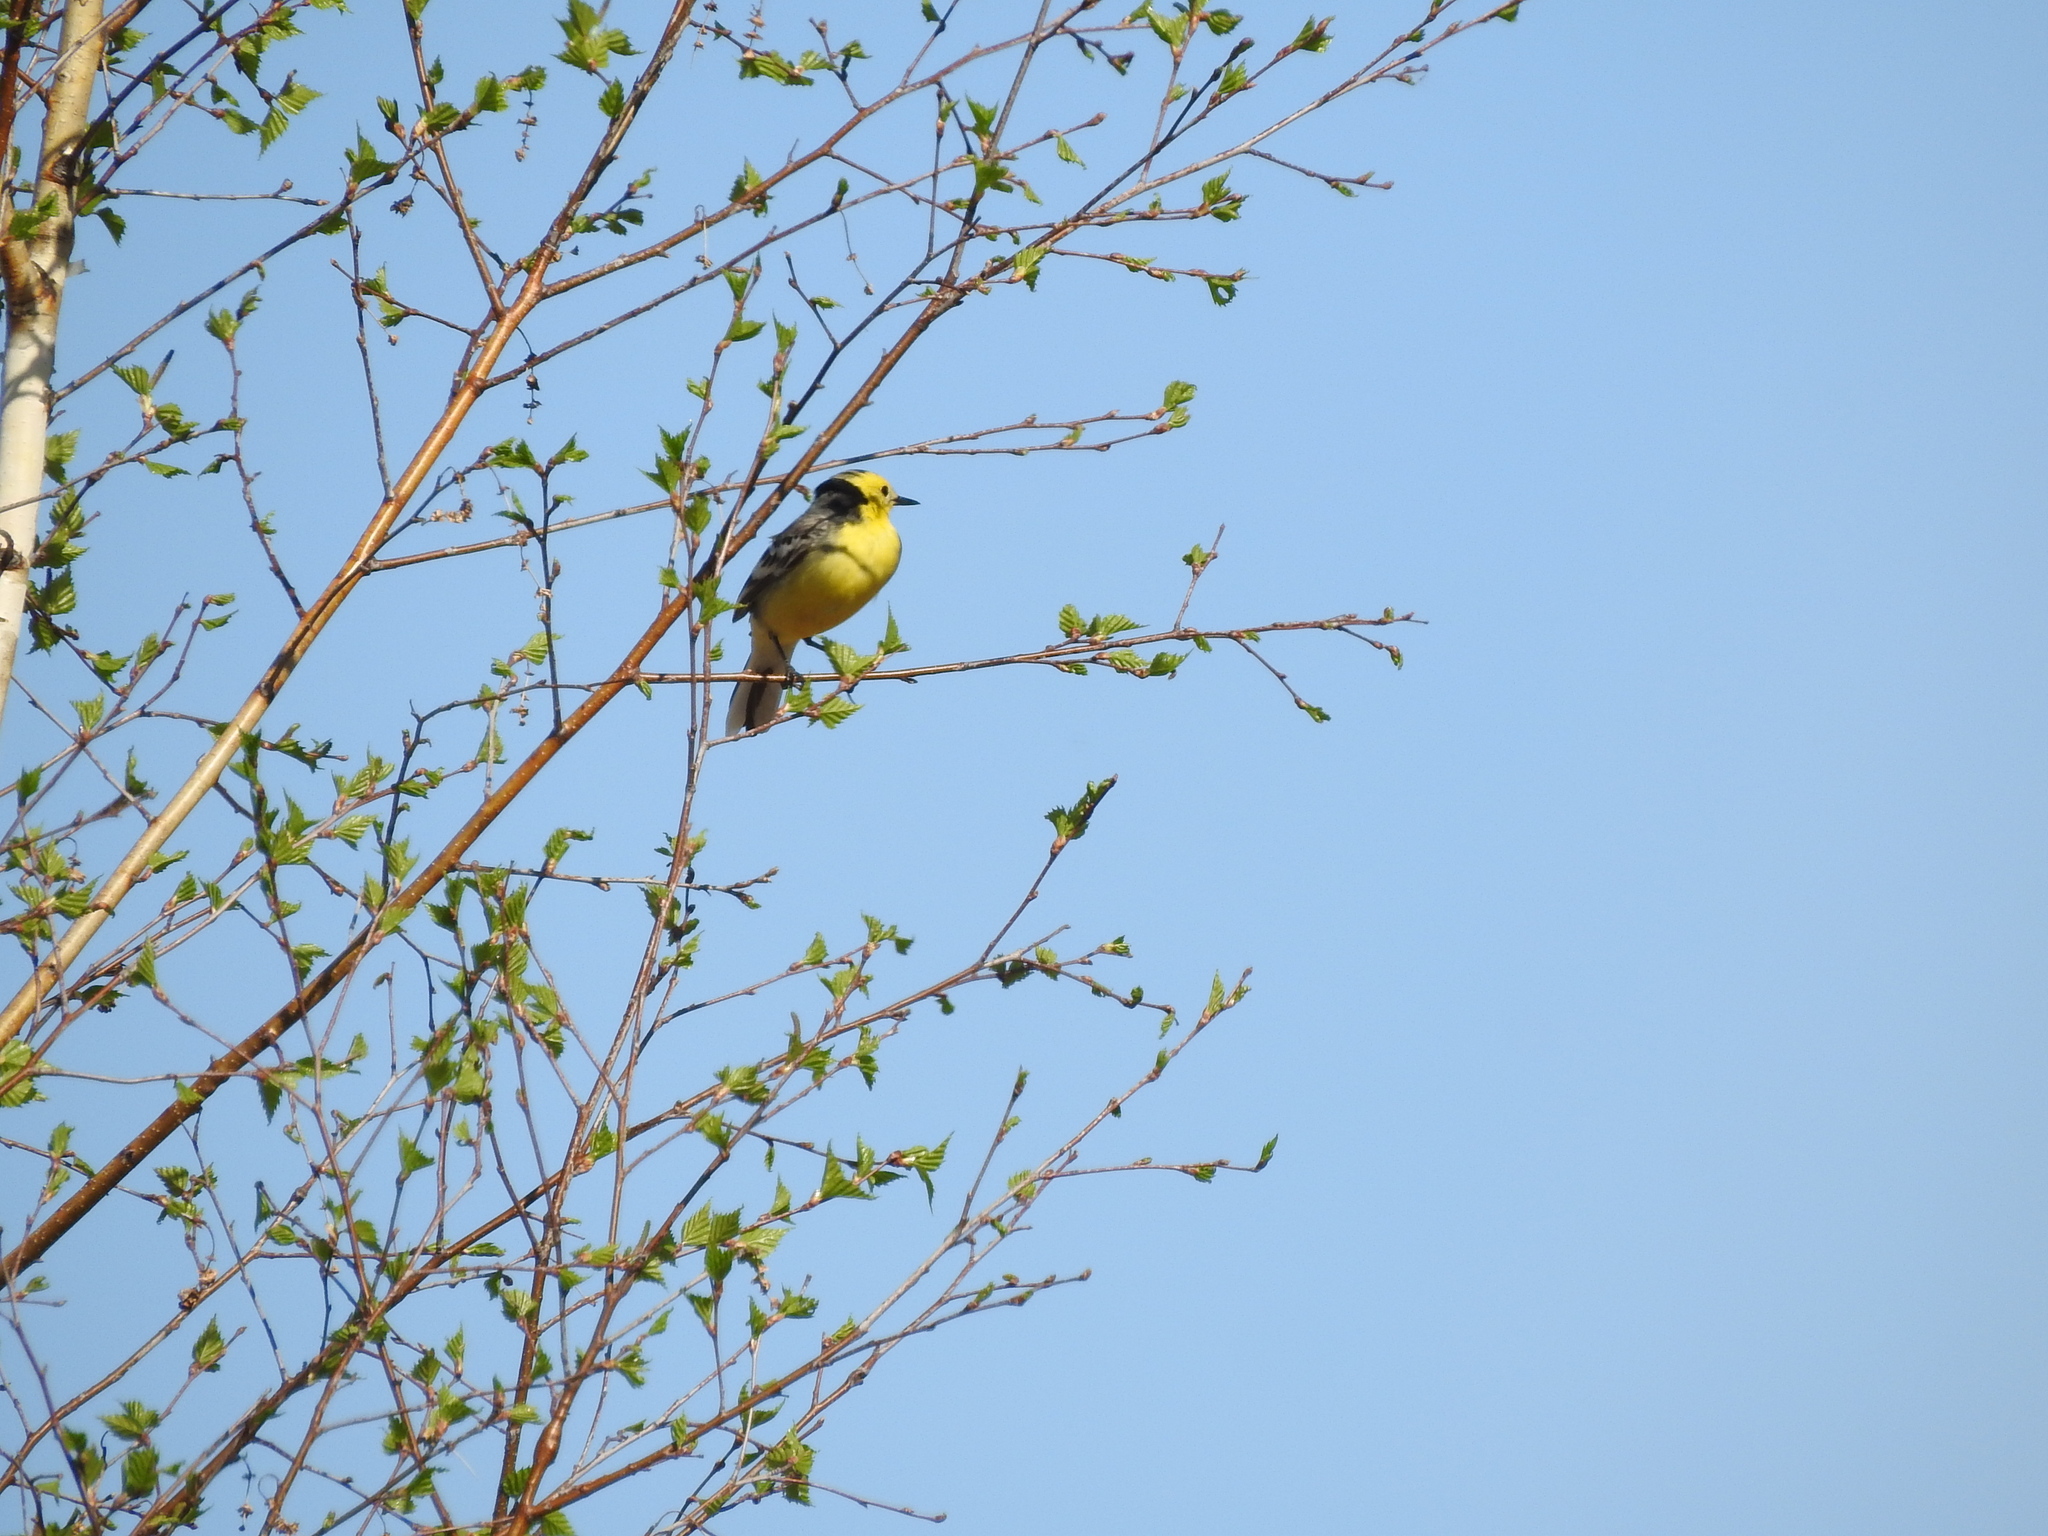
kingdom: Animalia
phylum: Chordata
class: Aves
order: Passeriformes
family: Motacillidae
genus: Motacilla
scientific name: Motacilla citreola
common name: Citrine wagtail
